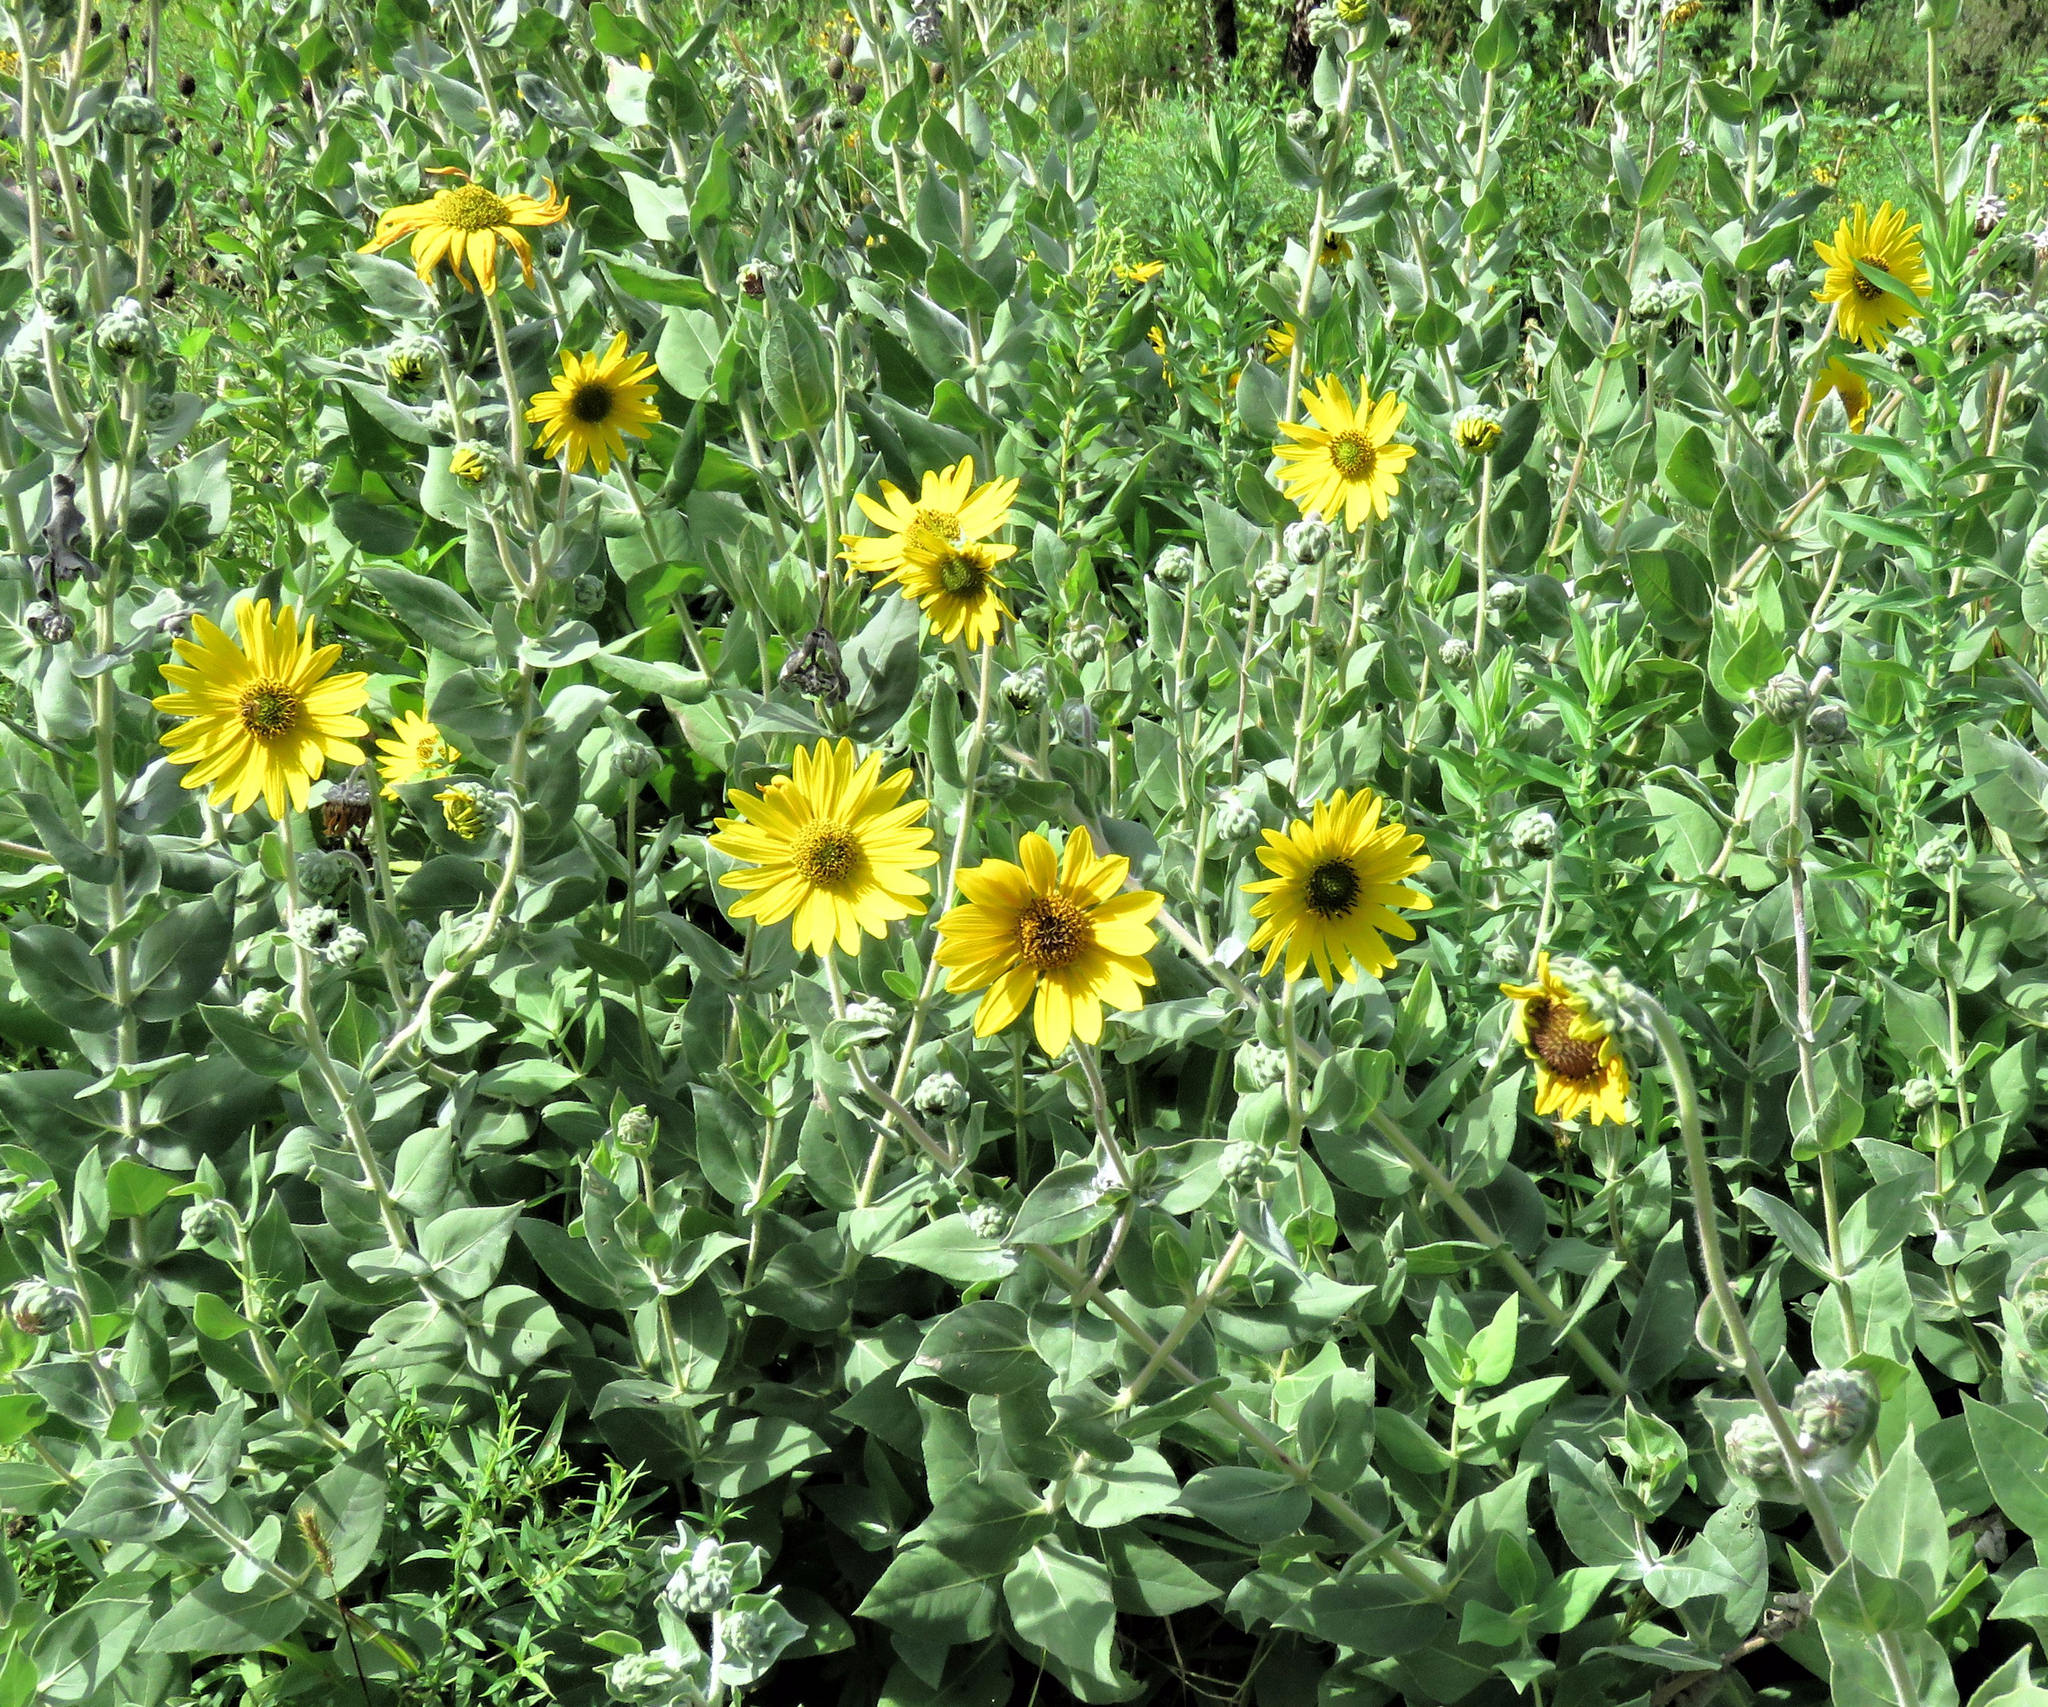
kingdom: Plantae
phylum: Tracheophyta
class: Magnoliopsida
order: Asterales
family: Asteraceae
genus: Helianthus
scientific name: Helianthus mollis
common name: Ashy sunflower
